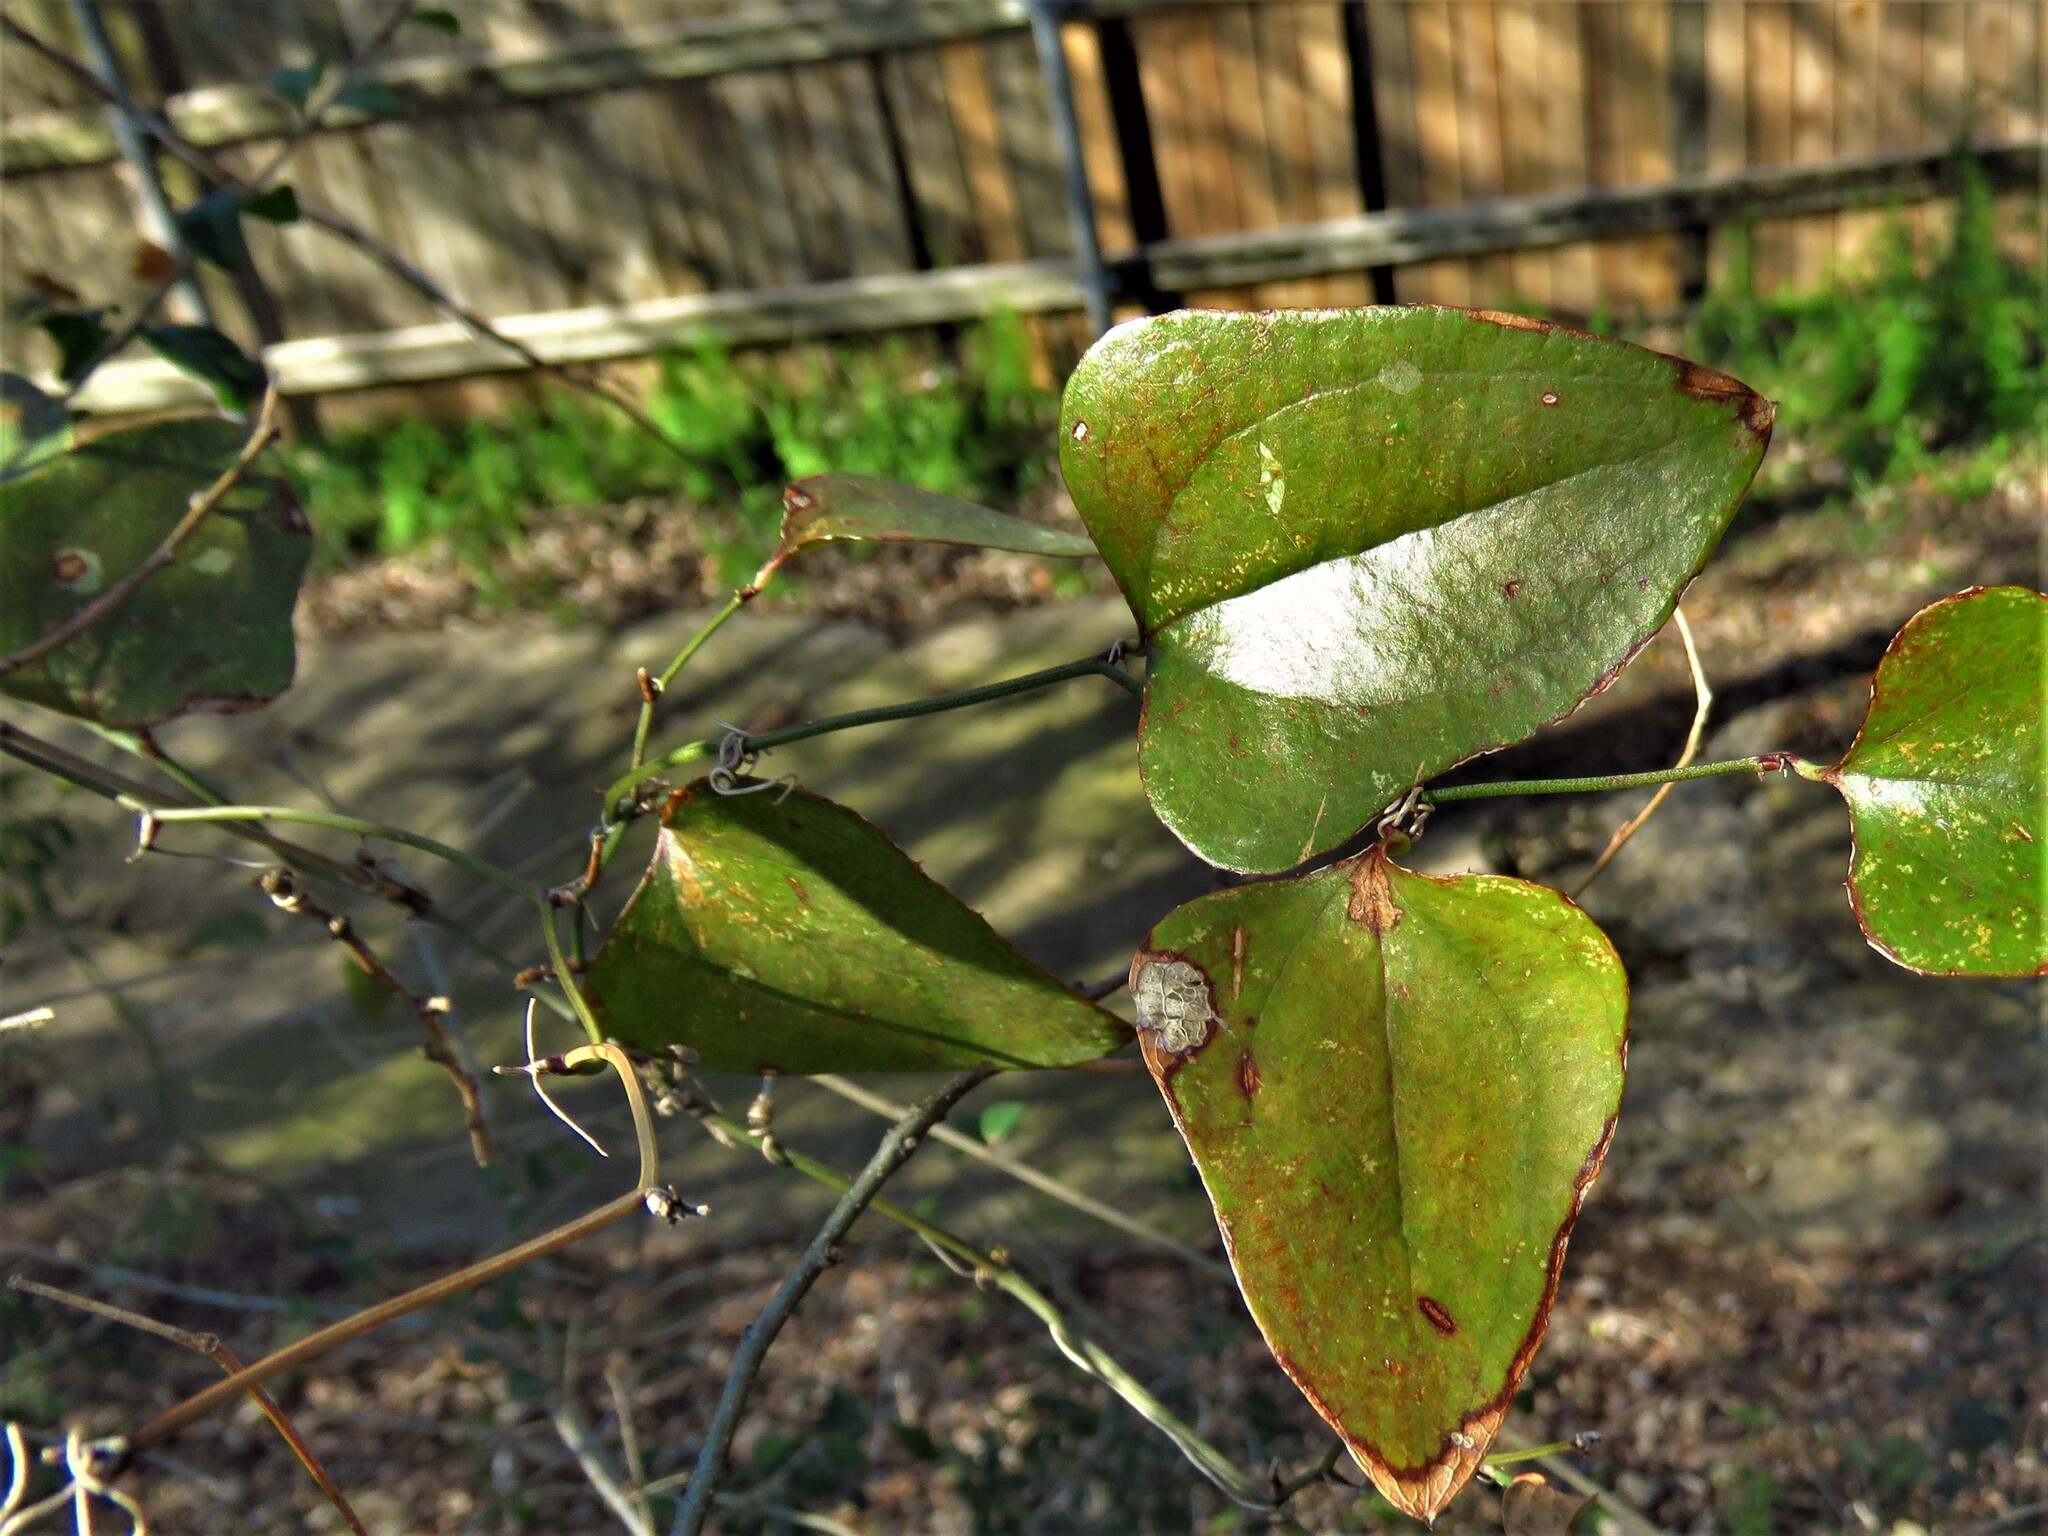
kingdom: Plantae
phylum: Tracheophyta
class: Liliopsida
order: Liliales
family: Smilacaceae
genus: Smilax
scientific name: Smilax bona-nox
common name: Catbrier
